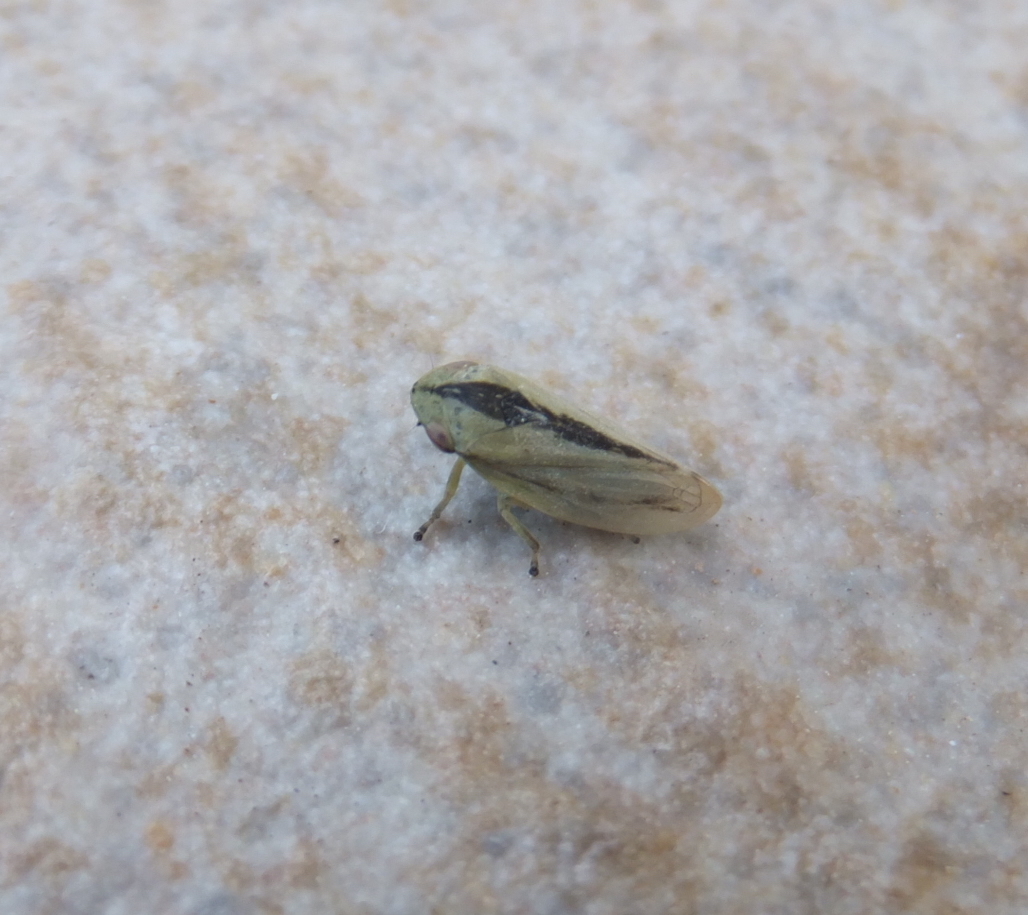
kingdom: Animalia
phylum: Arthropoda
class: Insecta
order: Hemiptera
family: Aphrophoridae
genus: Philaenus
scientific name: Philaenus spumarius
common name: Meadow spittlebug
